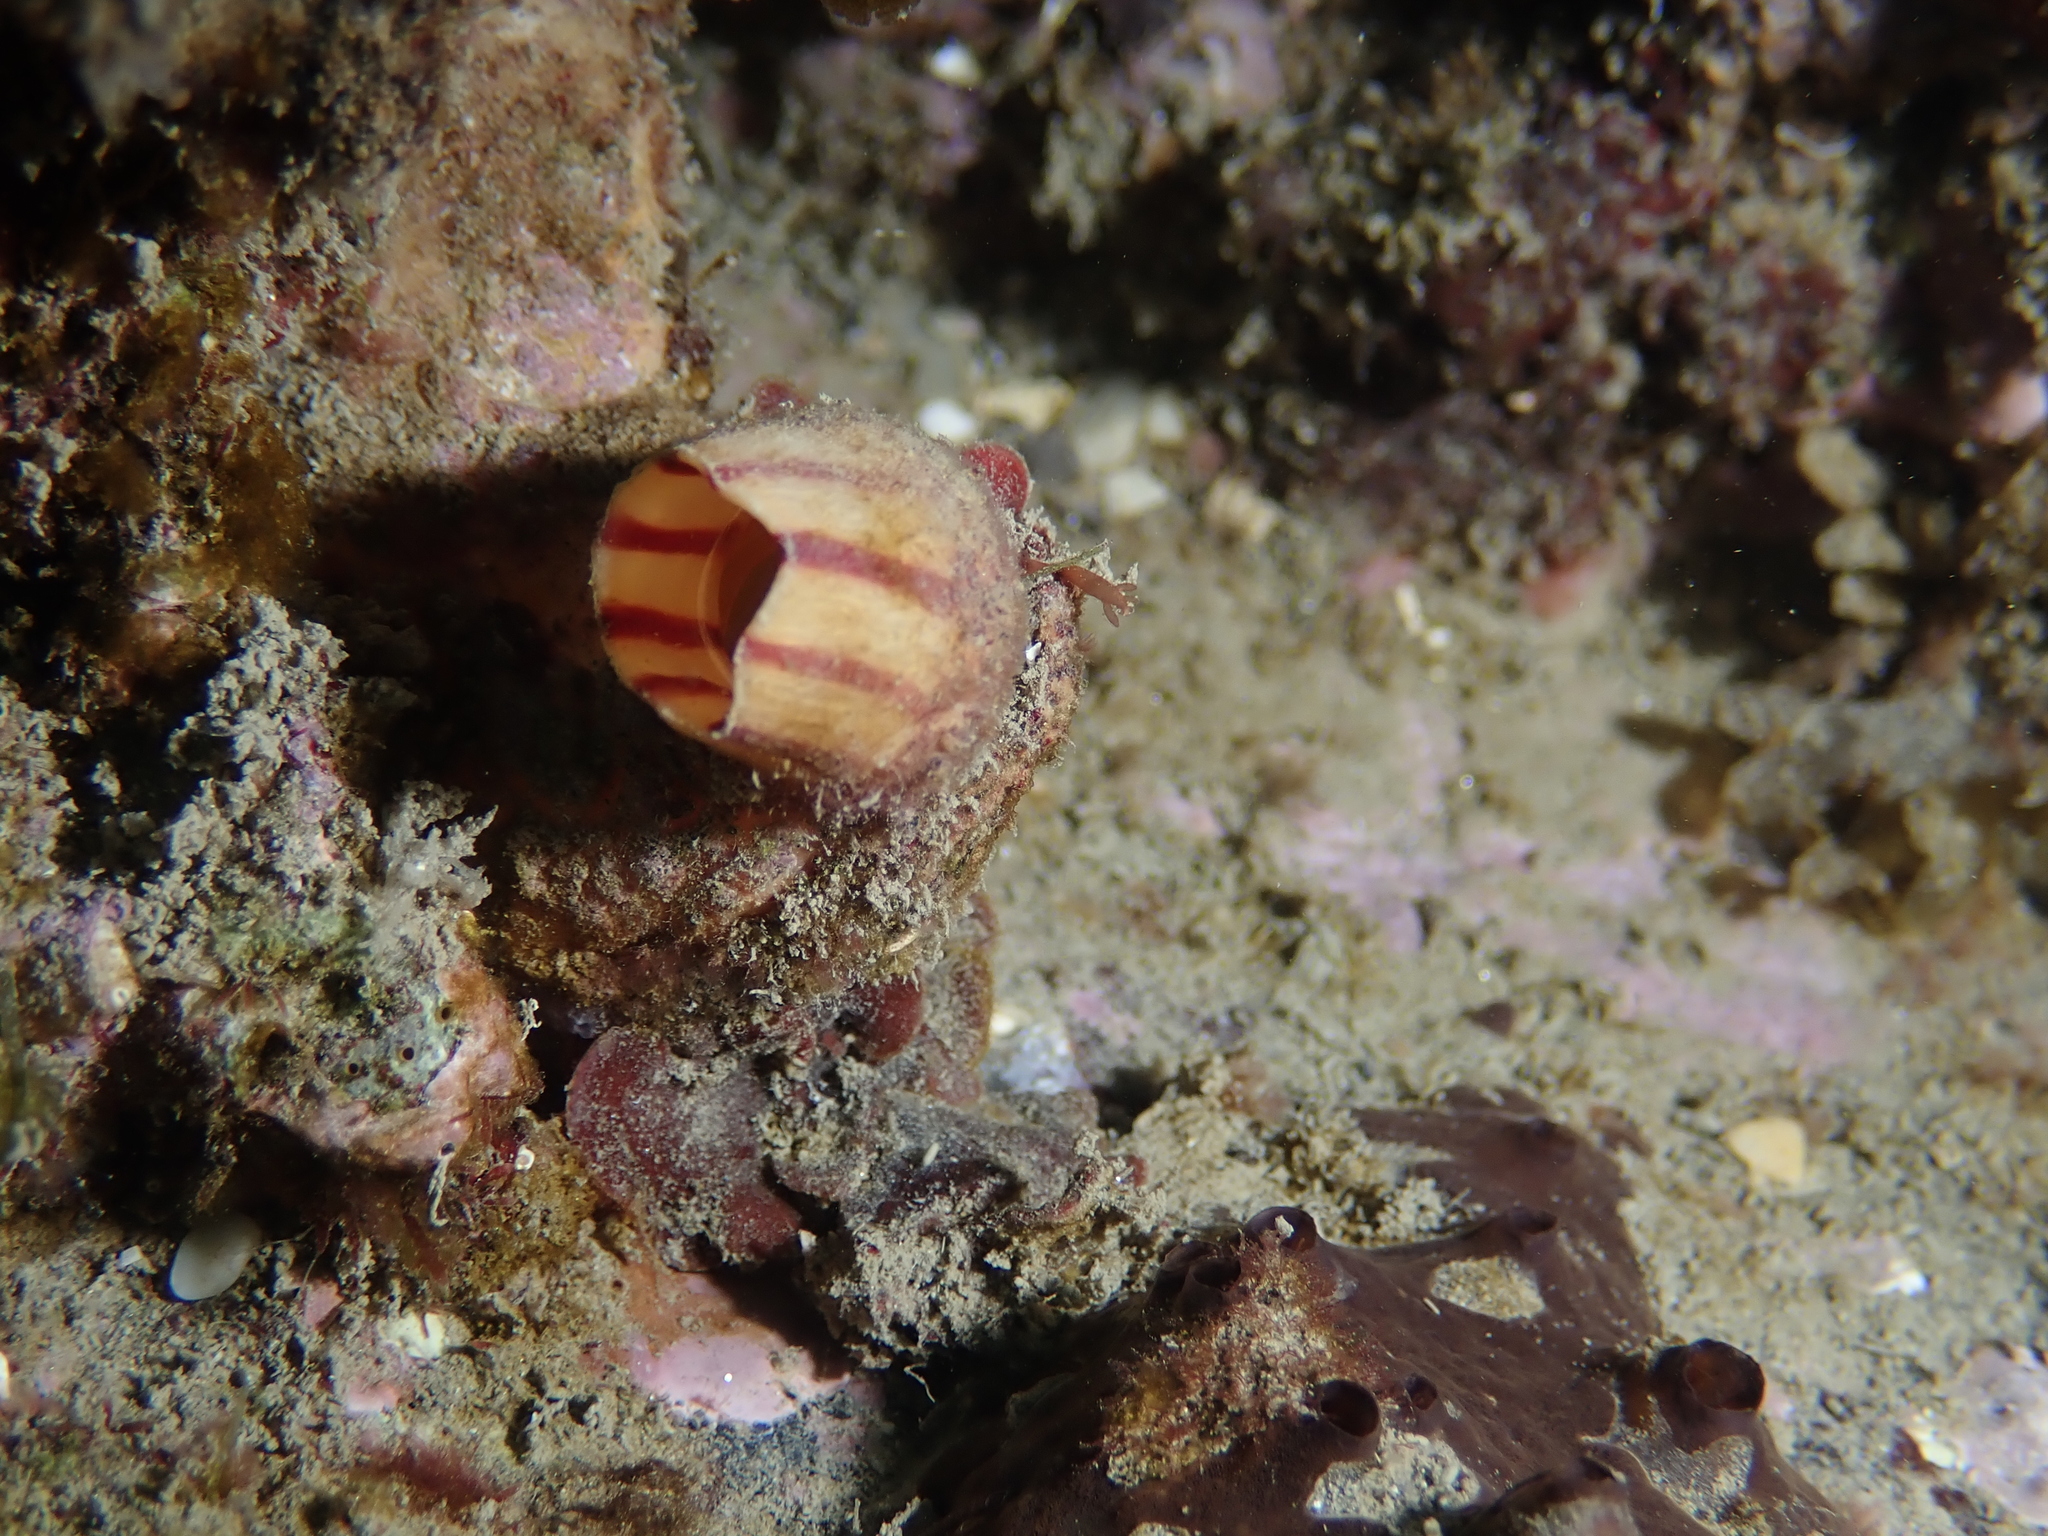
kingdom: Animalia
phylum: Chordata
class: Ascidiacea
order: Stolidobranchia
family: Pyuridae
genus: Microcosmus
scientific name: Microcosmus sabatieri
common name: Grooved sea squirt
